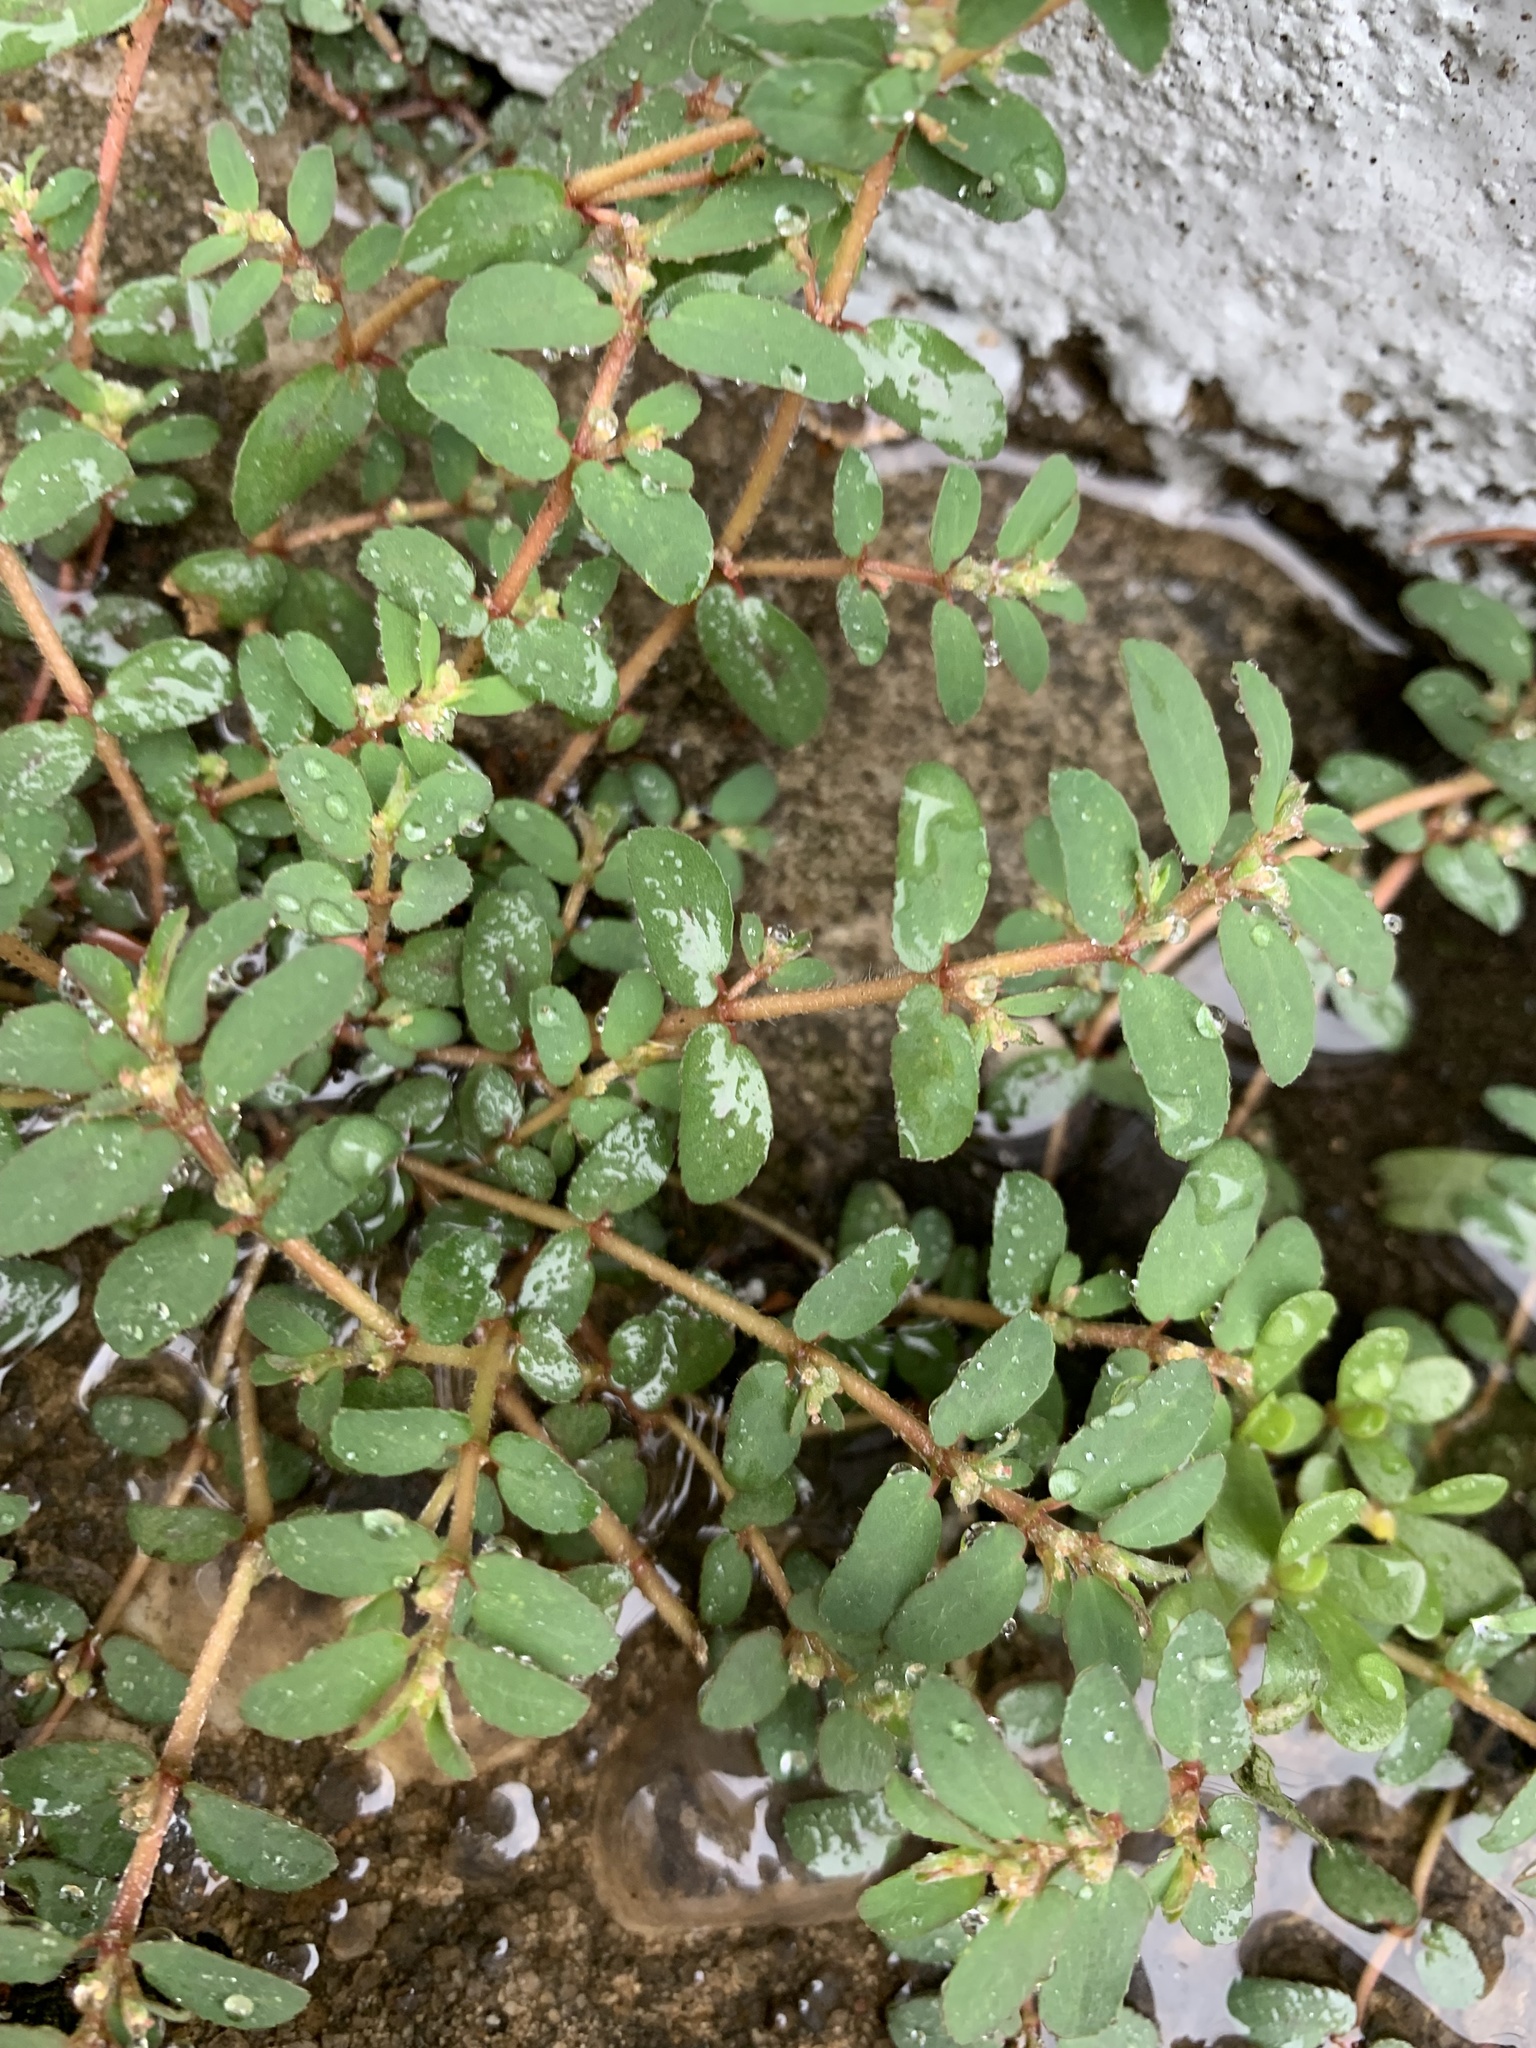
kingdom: Plantae
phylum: Tracheophyta
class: Magnoliopsida
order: Malpighiales
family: Euphorbiaceae
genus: Euphorbia
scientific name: Euphorbia maculata
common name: Spotted spurge
